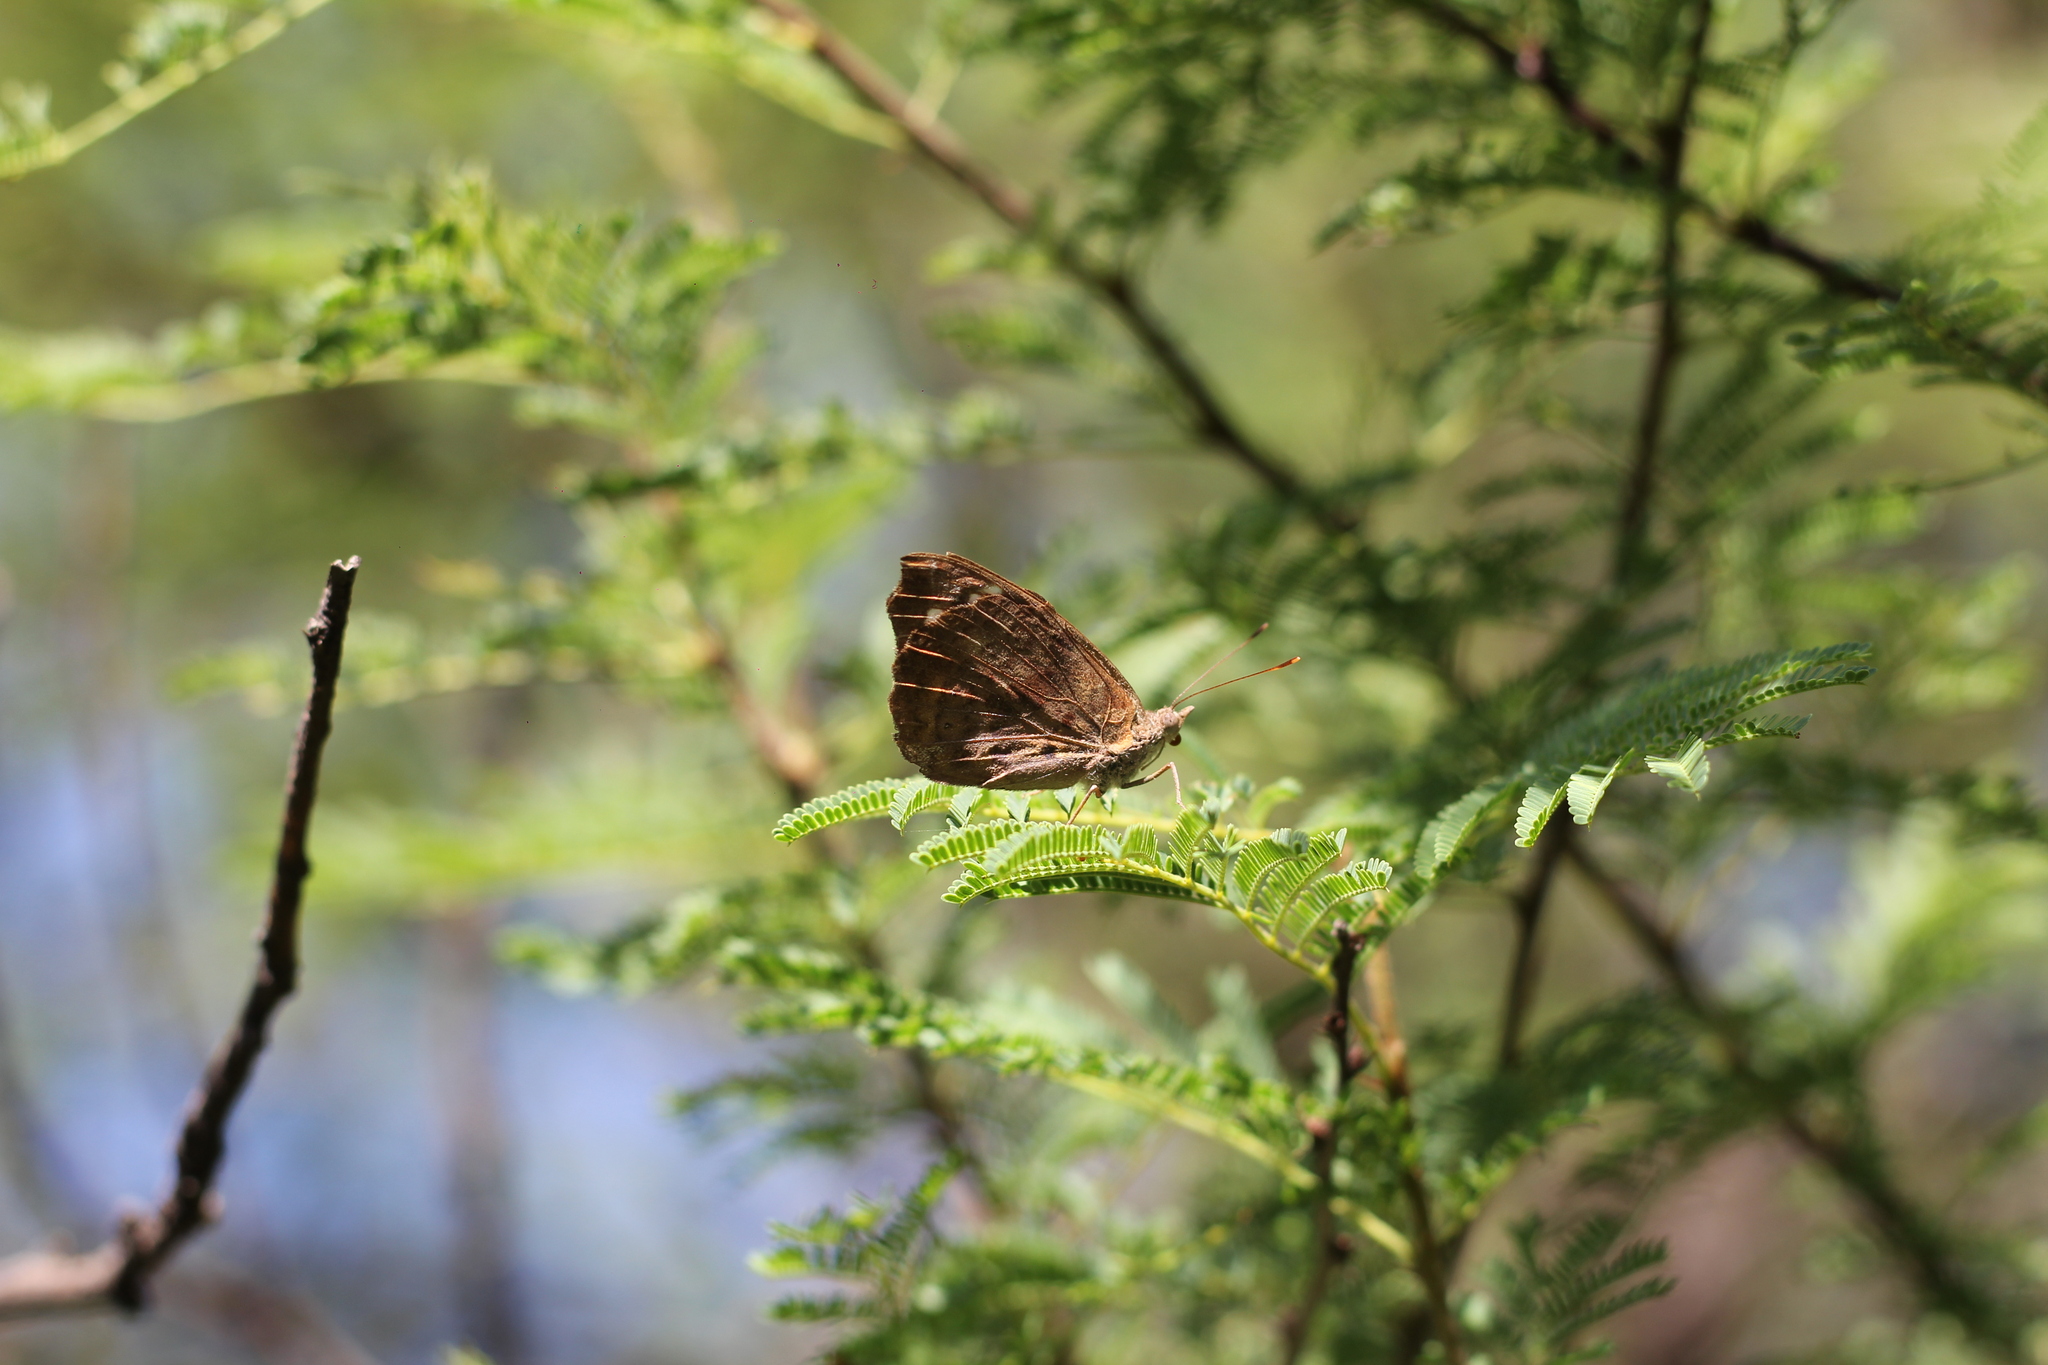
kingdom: Animalia
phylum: Arthropoda
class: Insecta
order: Lepidoptera
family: Nymphalidae
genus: Eunica
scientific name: Eunica tatila
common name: Florida purplewing
